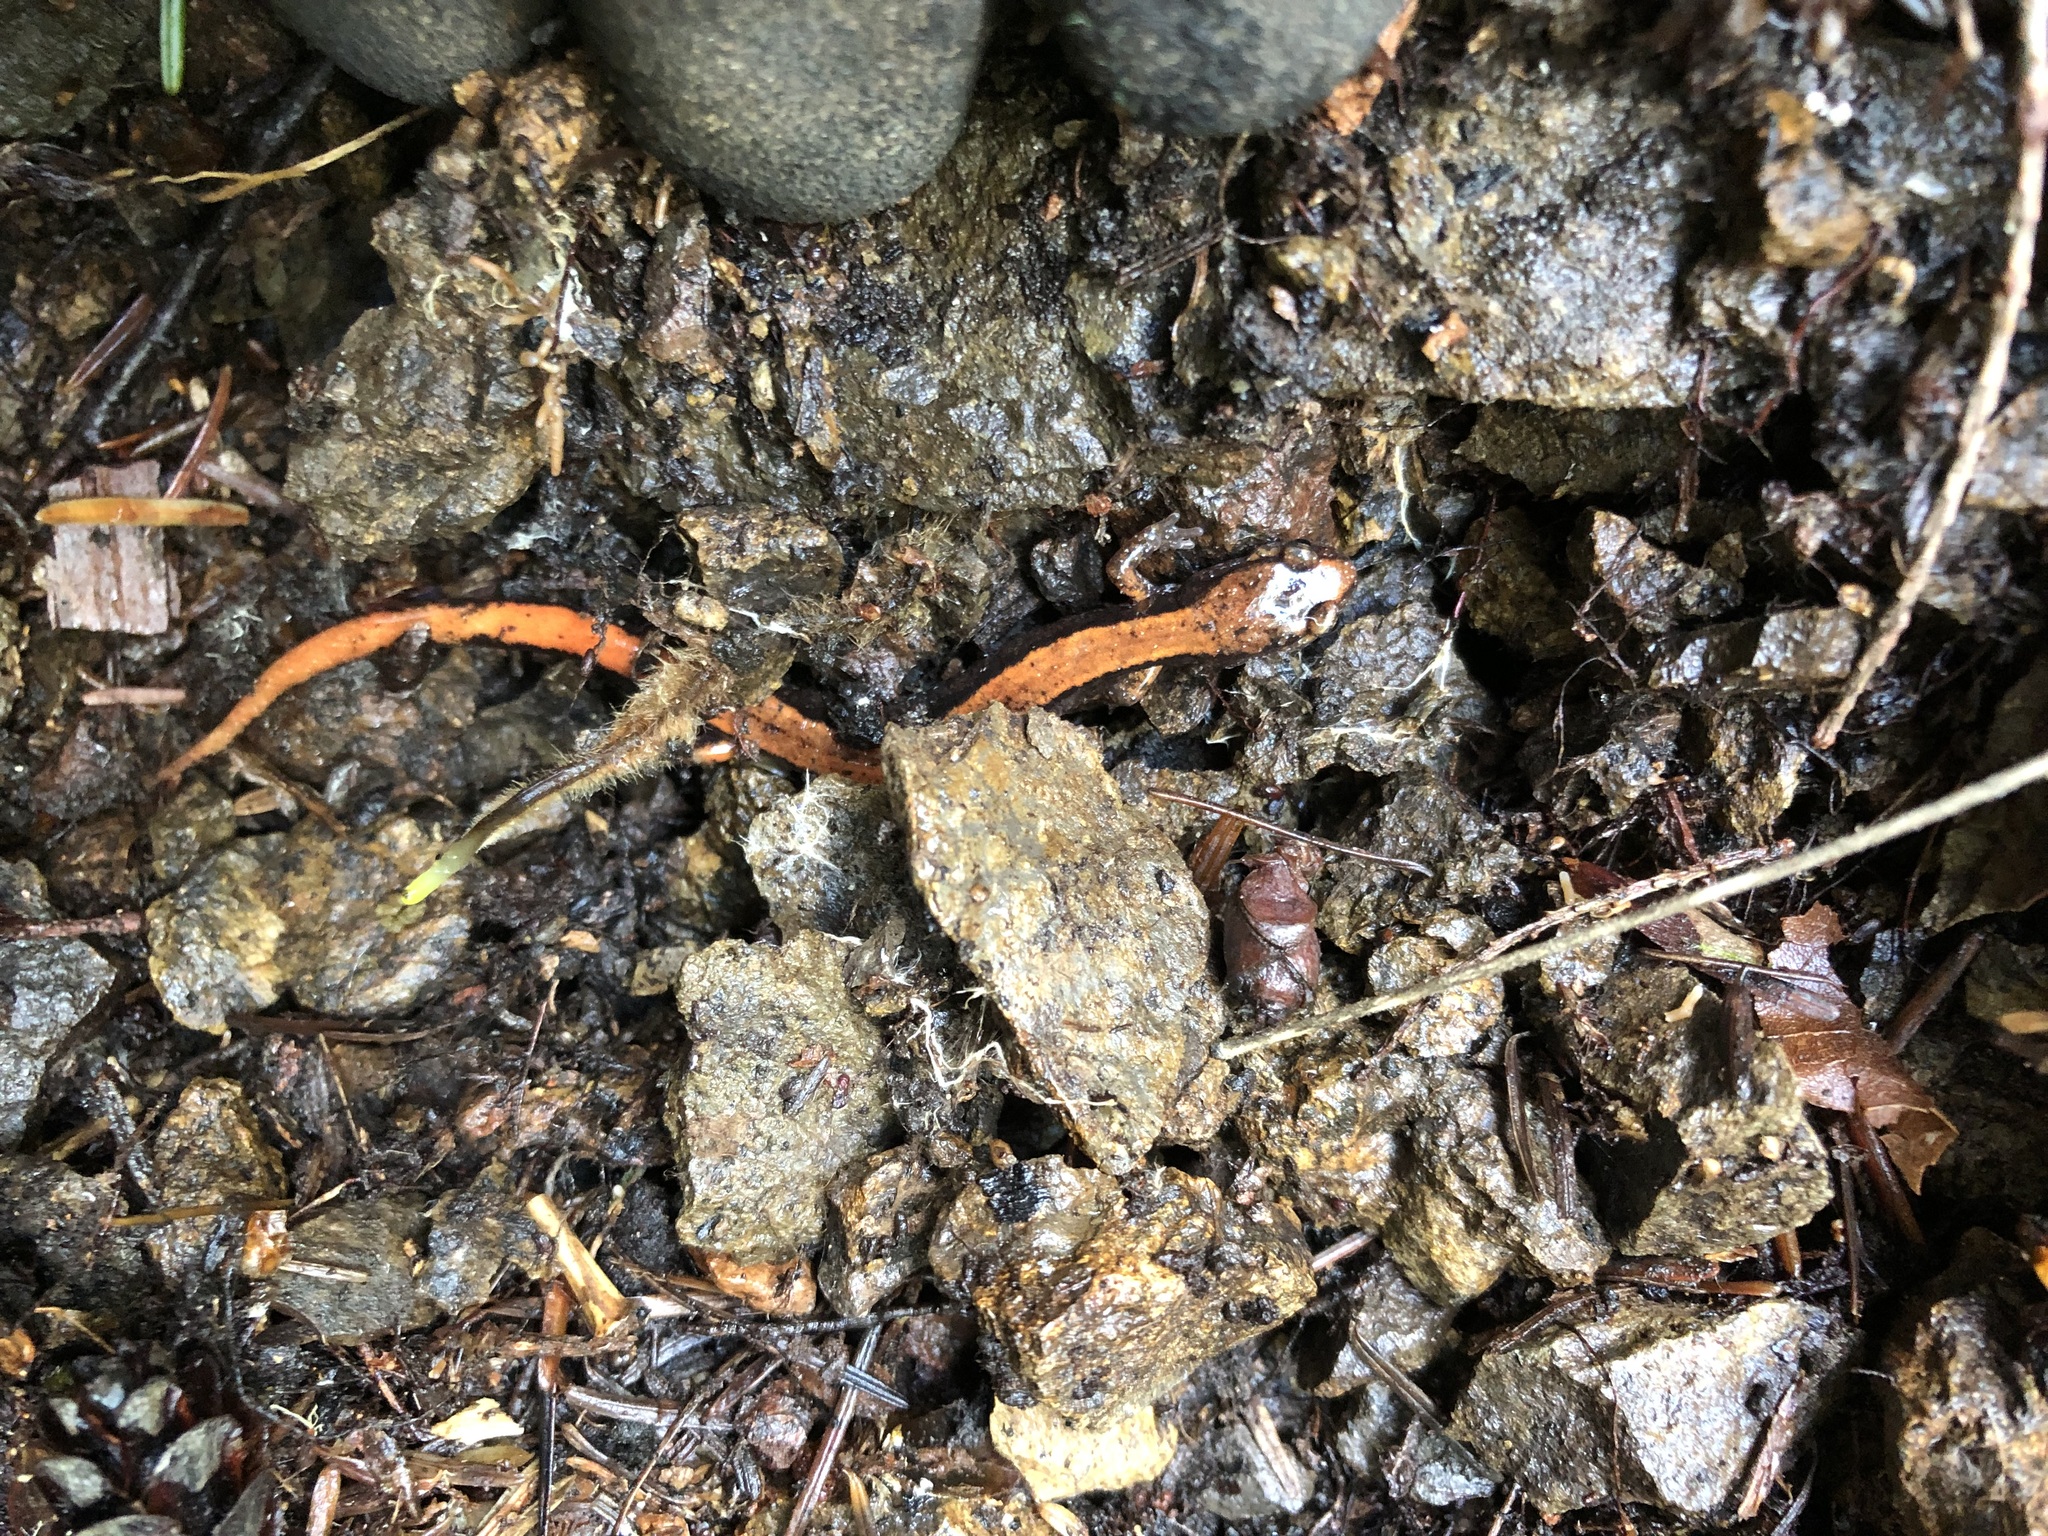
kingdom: Animalia
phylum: Chordata
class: Amphibia
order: Caudata
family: Plethodontidae
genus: Plethodon
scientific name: Plethodon vehiculum
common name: Western red-backed salamander
